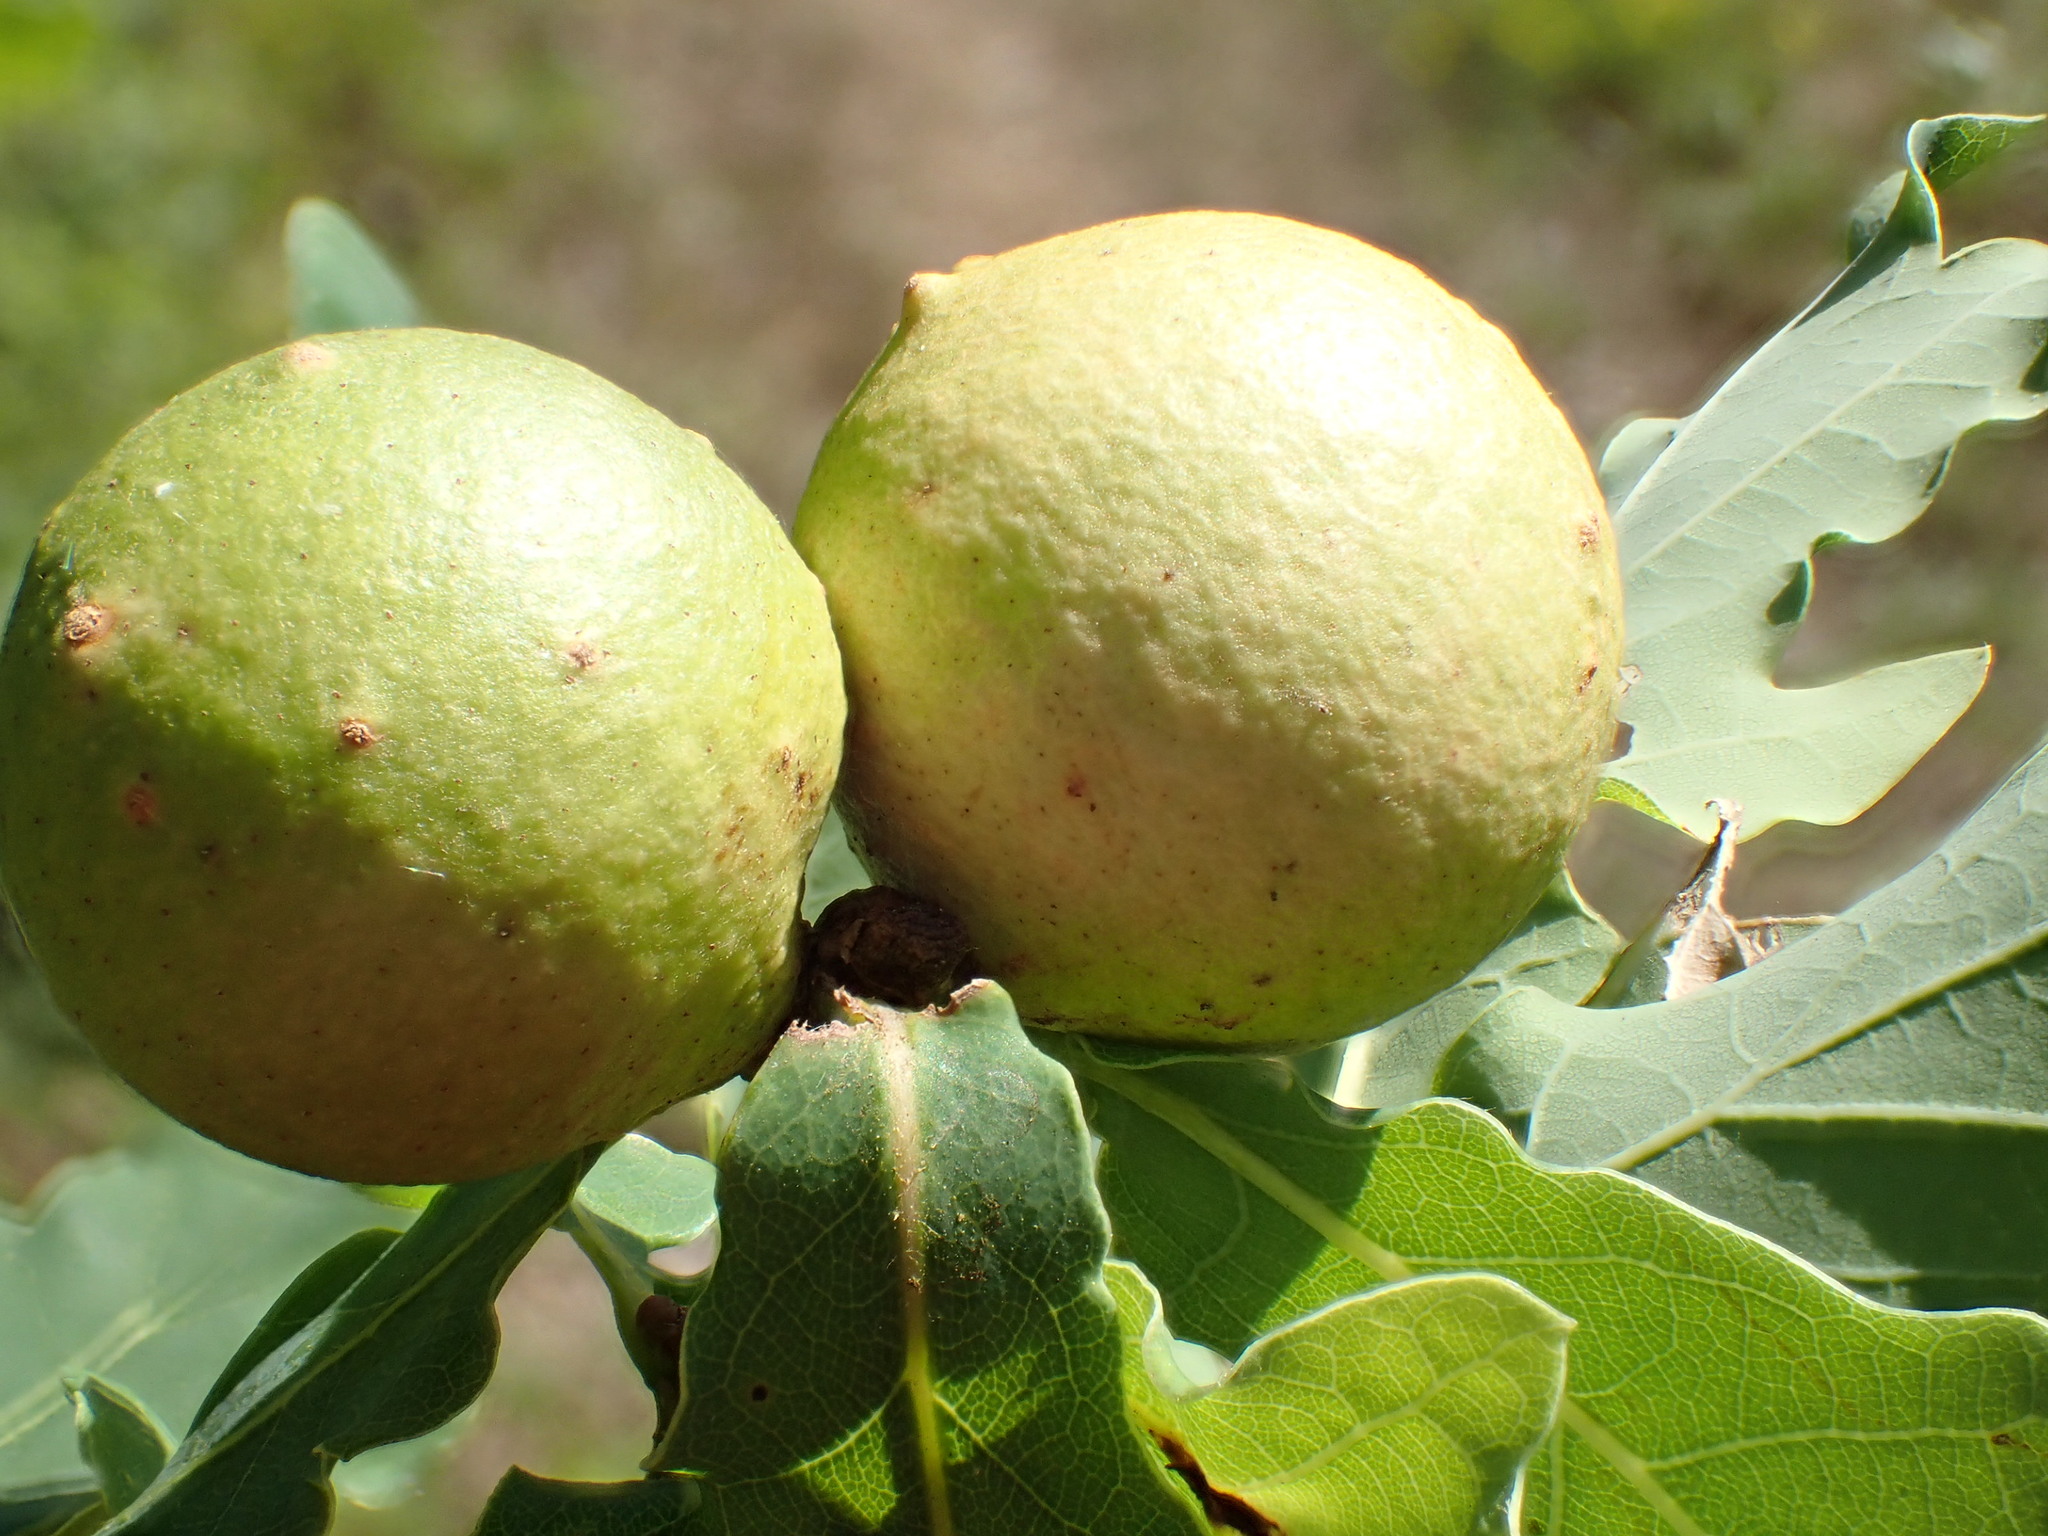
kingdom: Animalia
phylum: Arthropoda
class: Insecta
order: Hymenoptera
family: Cynipidae
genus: Cynips
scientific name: Cynips quercusfolii
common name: Cherry gall
